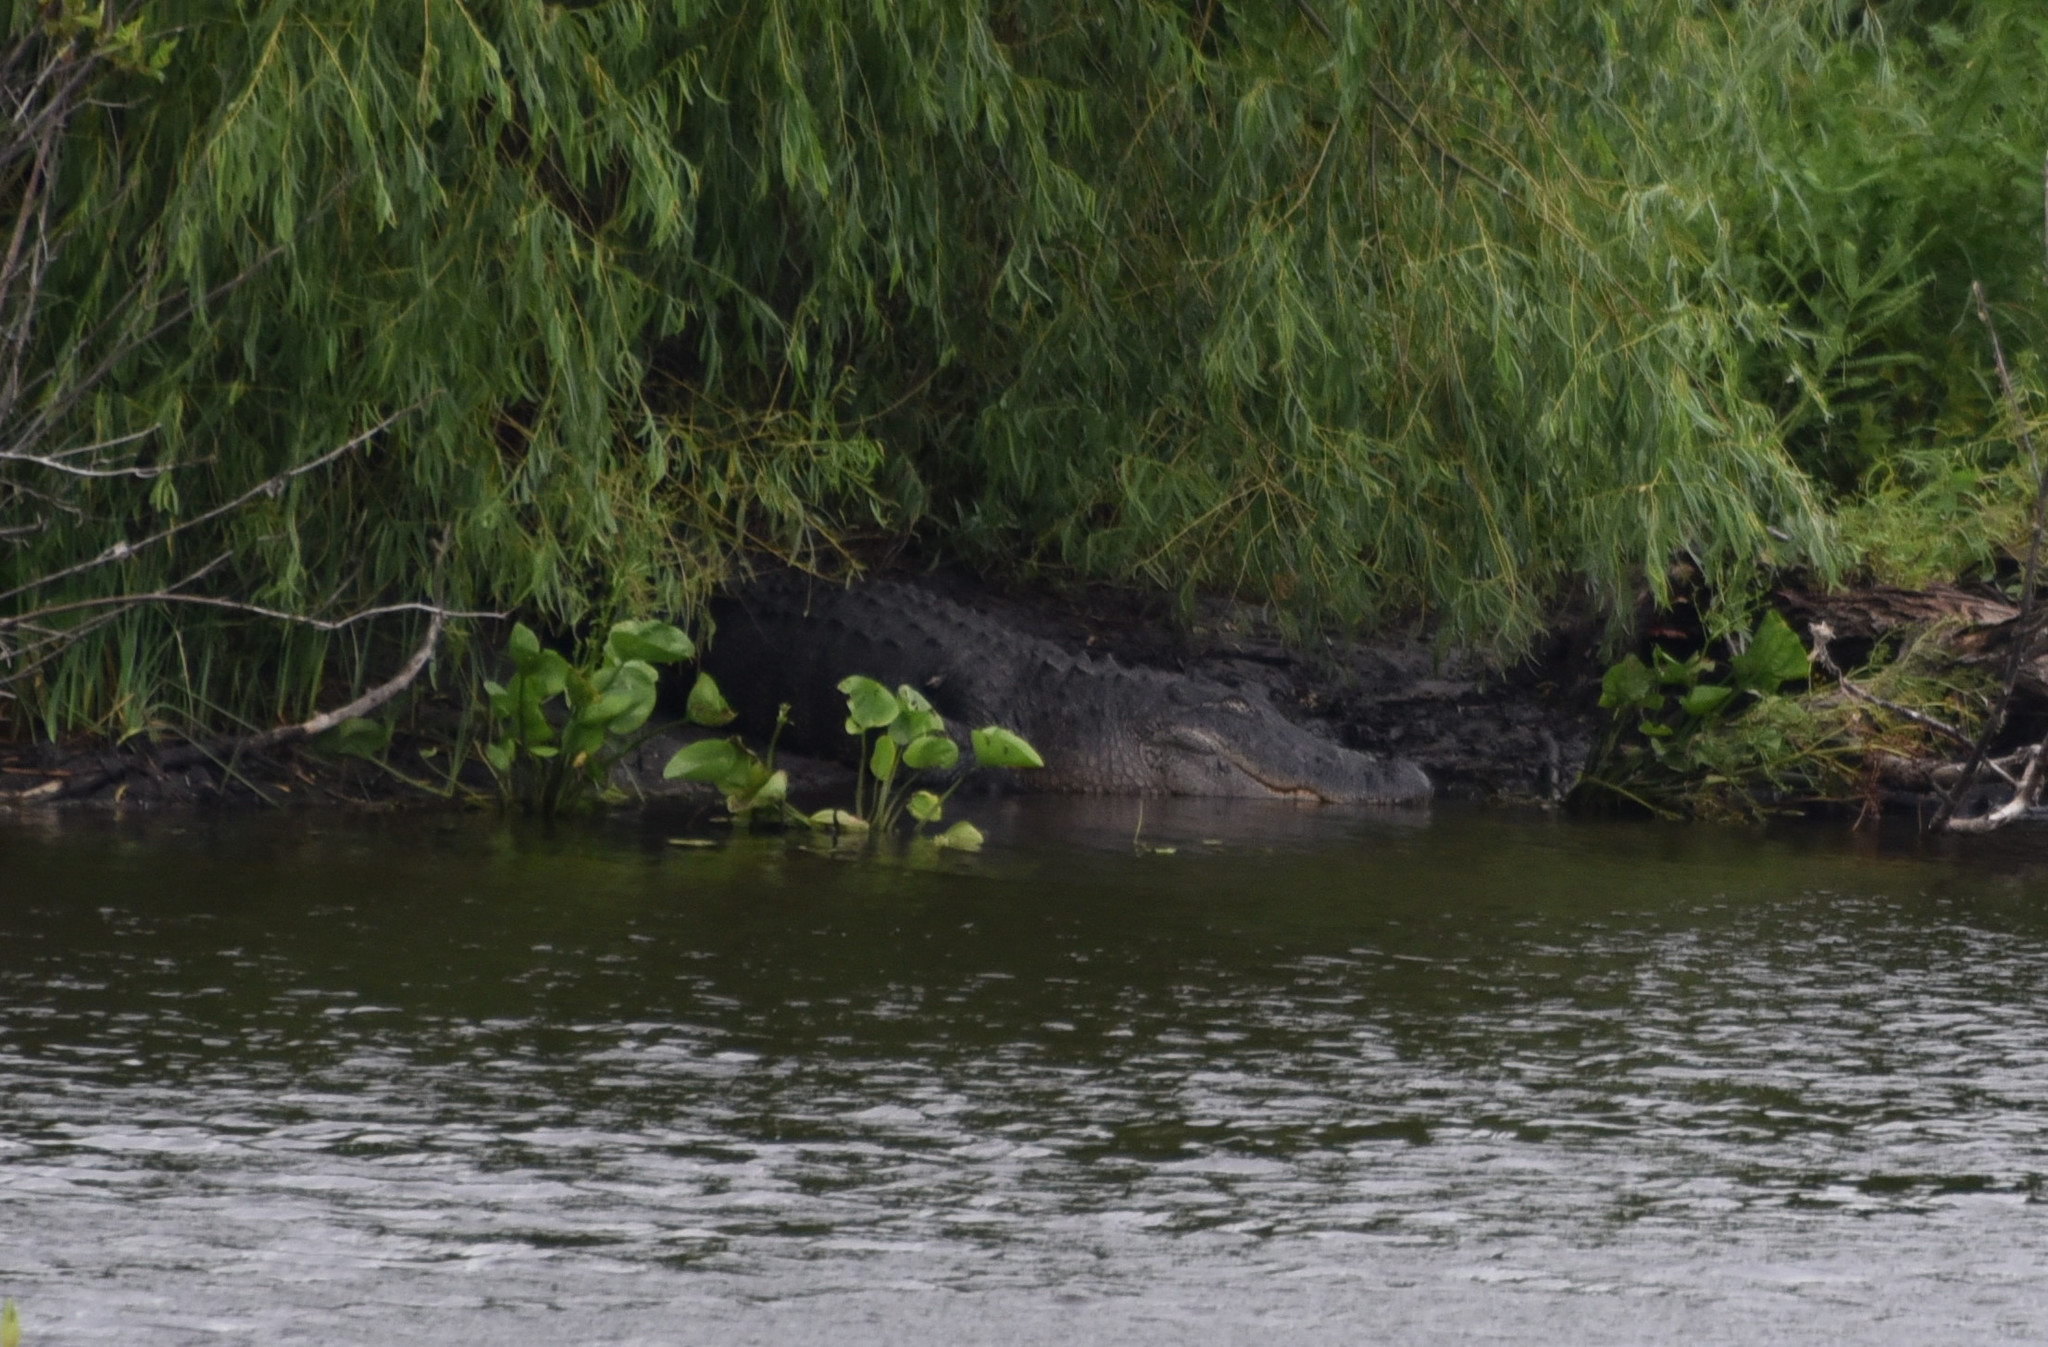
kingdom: Animalia
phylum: Chordata
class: Crocodylia
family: Alligatoridae
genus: Alligator
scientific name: Alligator mississippiensis
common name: American alligator
